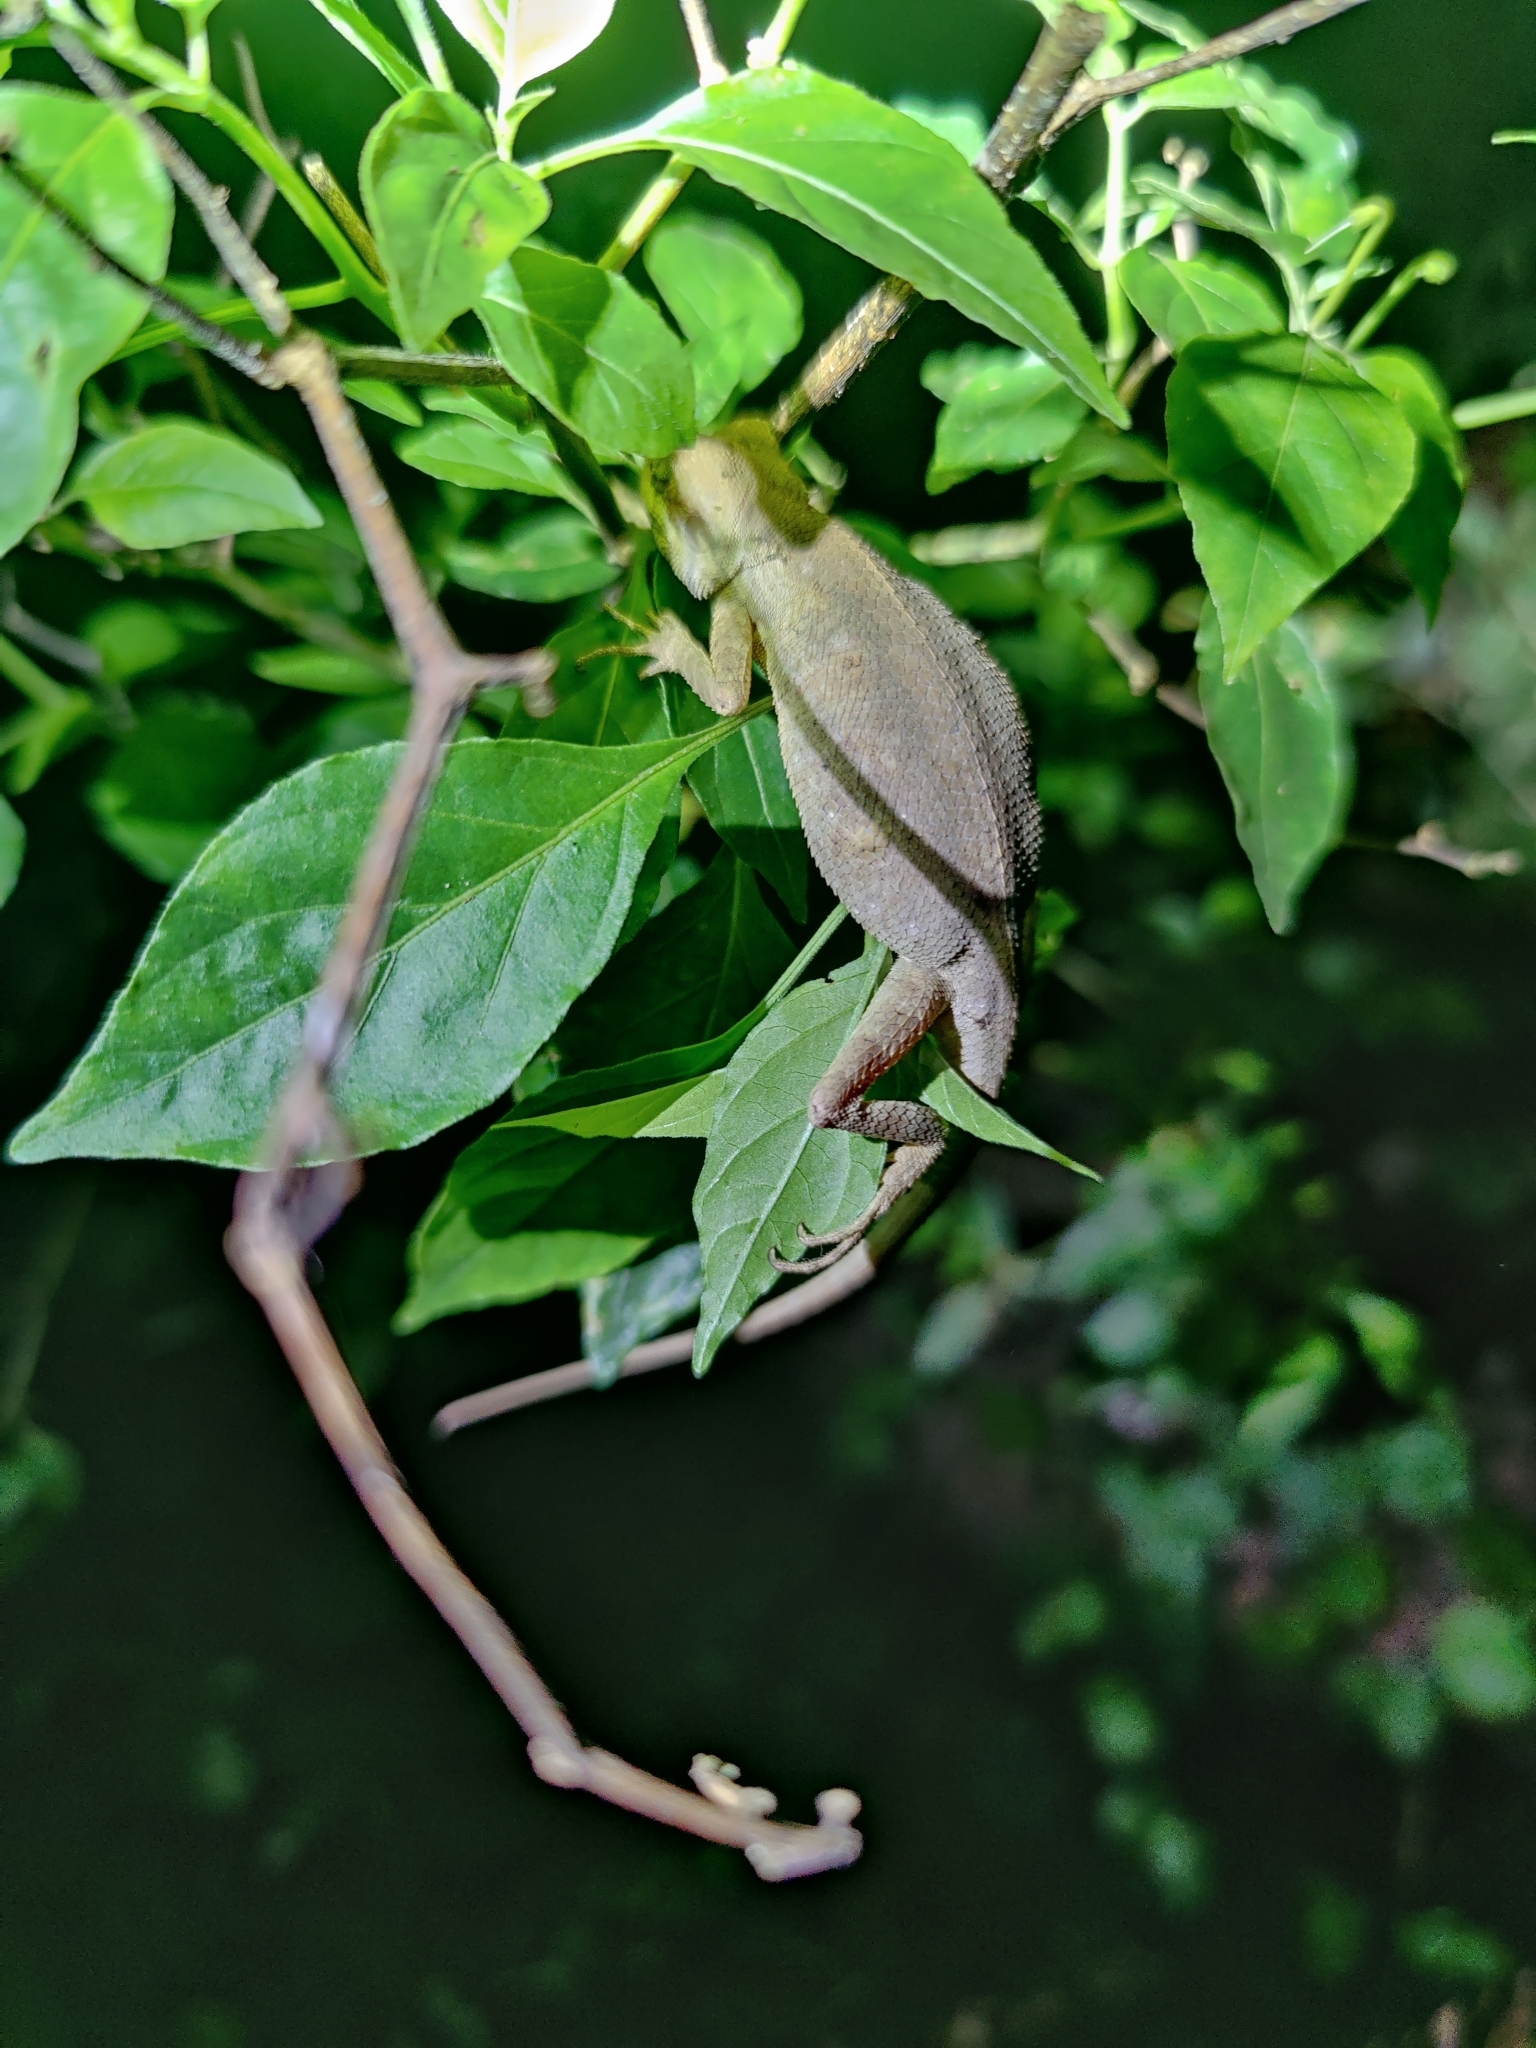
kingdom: Animalia
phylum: Chordata
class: Squamata
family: Agamidae
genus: Calotes
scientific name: Calotes versicolor
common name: Oriental garden lizard
